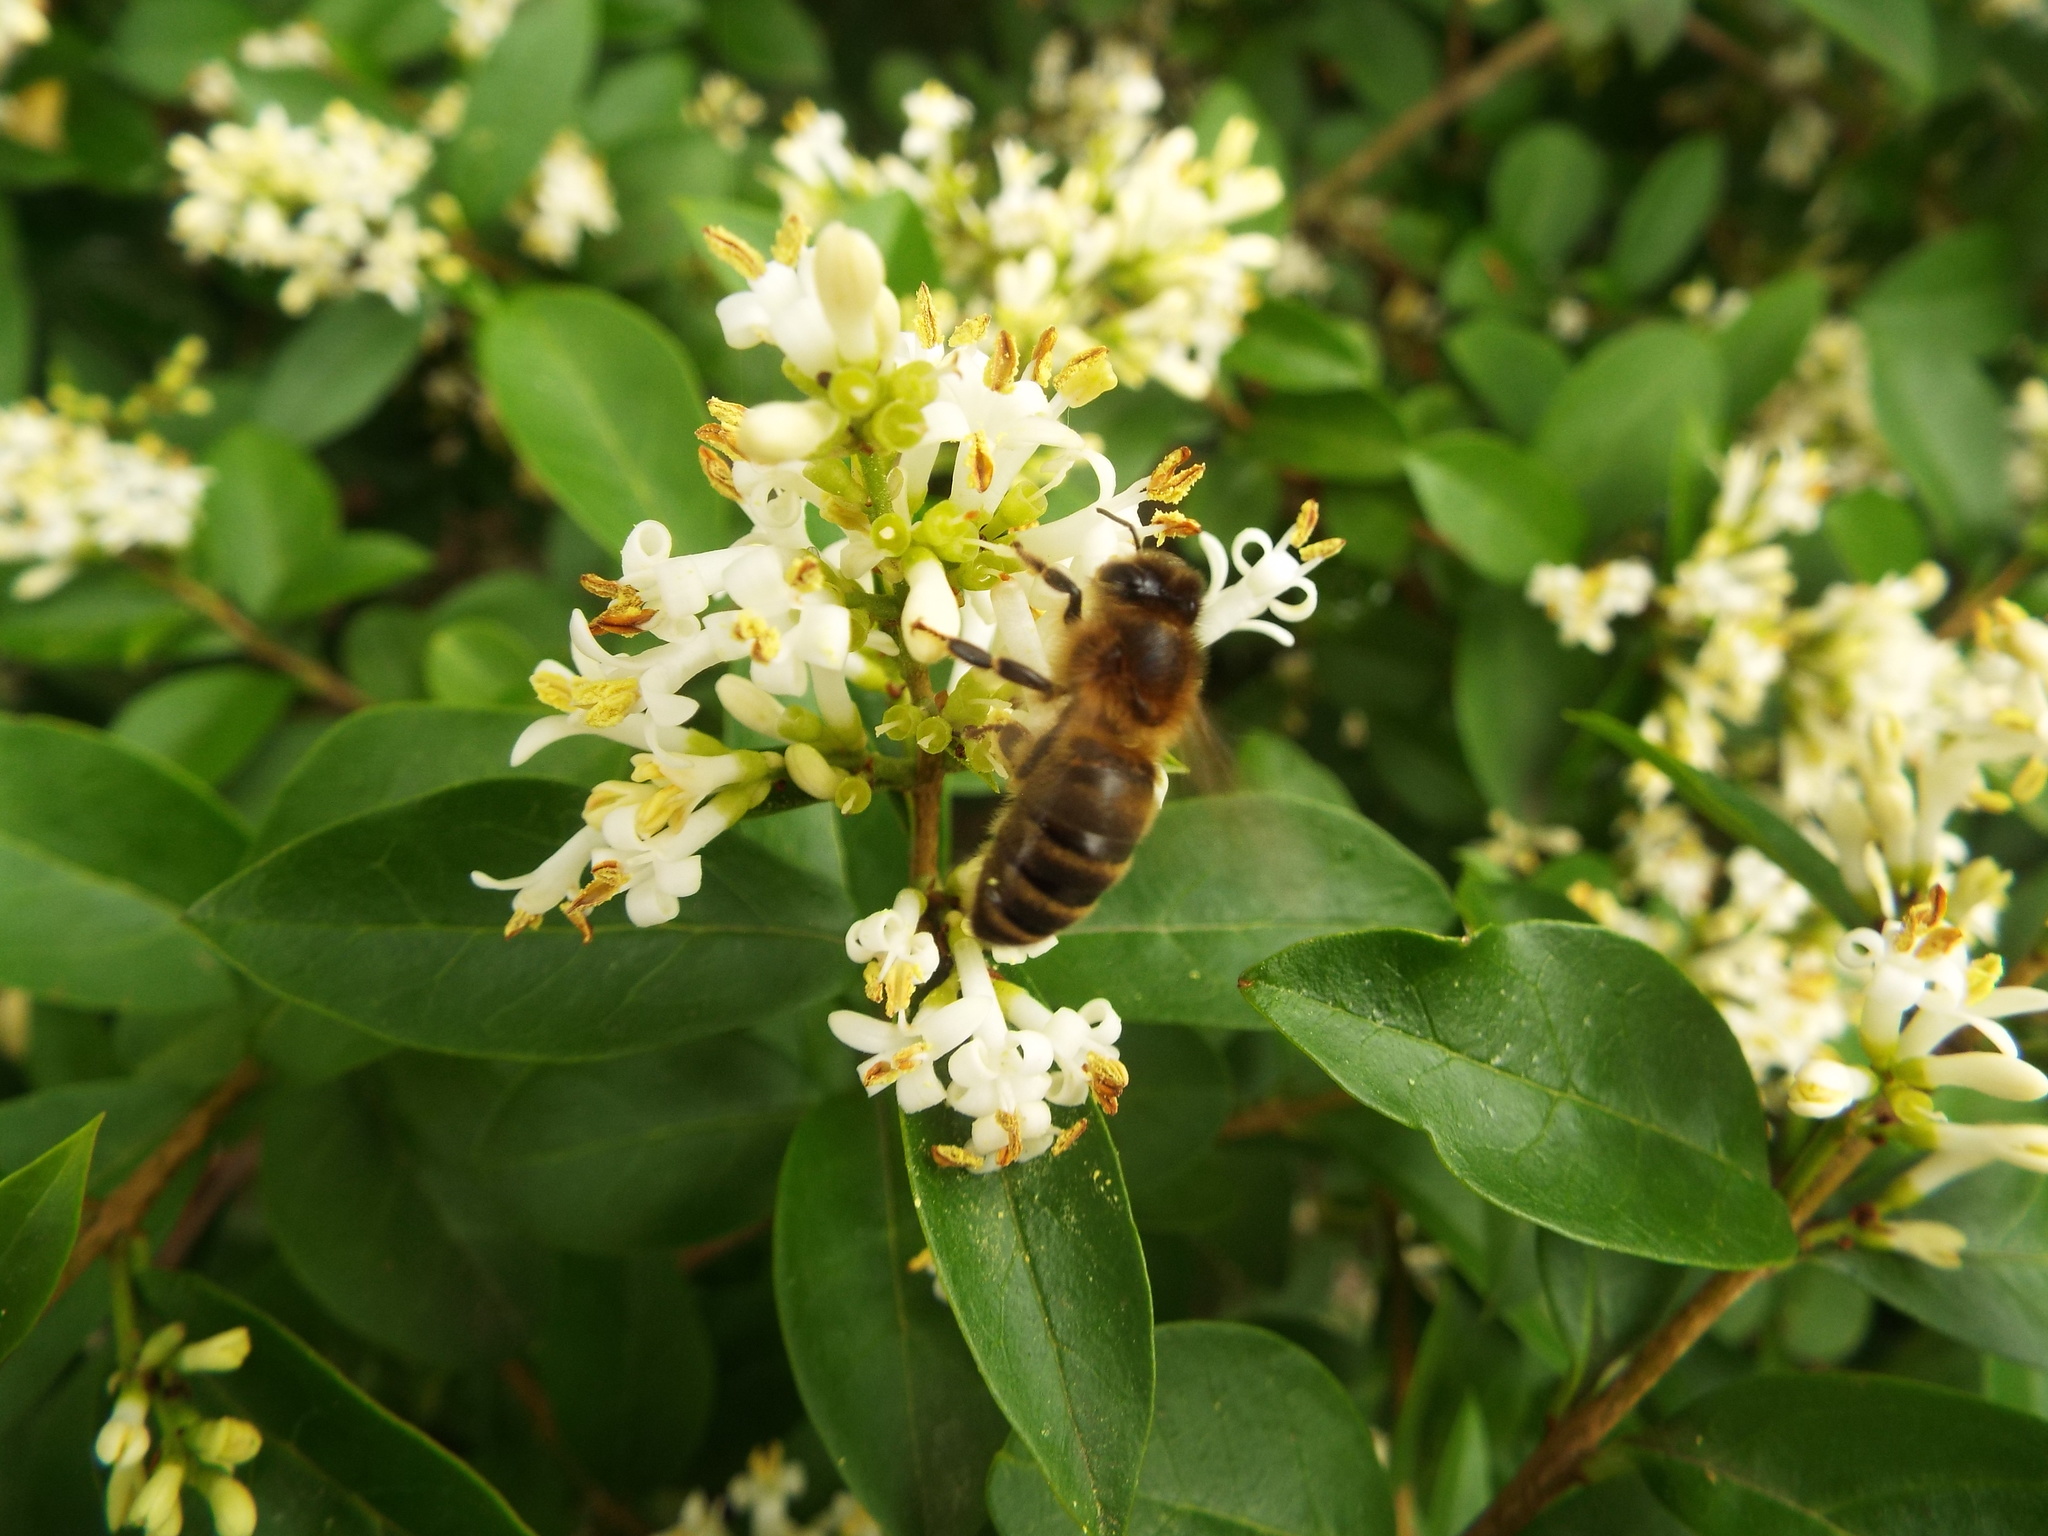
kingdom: Animalia
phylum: Arthropoda
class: Insecta
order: Hymenoptera
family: Apidae
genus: Apis
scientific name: Apis mellifera
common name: Honey bee
